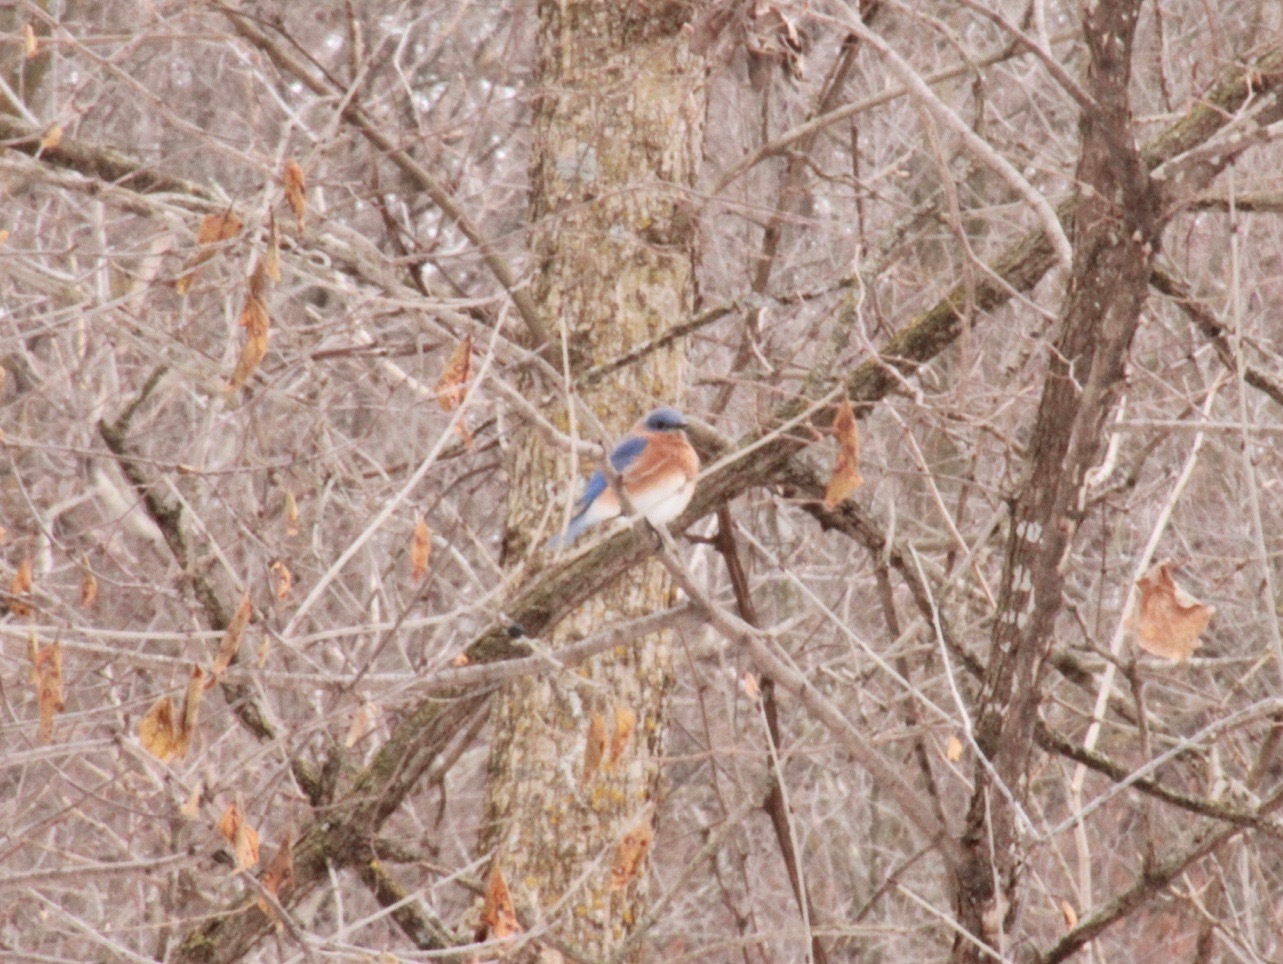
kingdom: Animalia
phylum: Chordata
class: Aves
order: Passeriformes
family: Turdidae
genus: Sialia
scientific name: Sialia sialis
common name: Eastern bluebird
